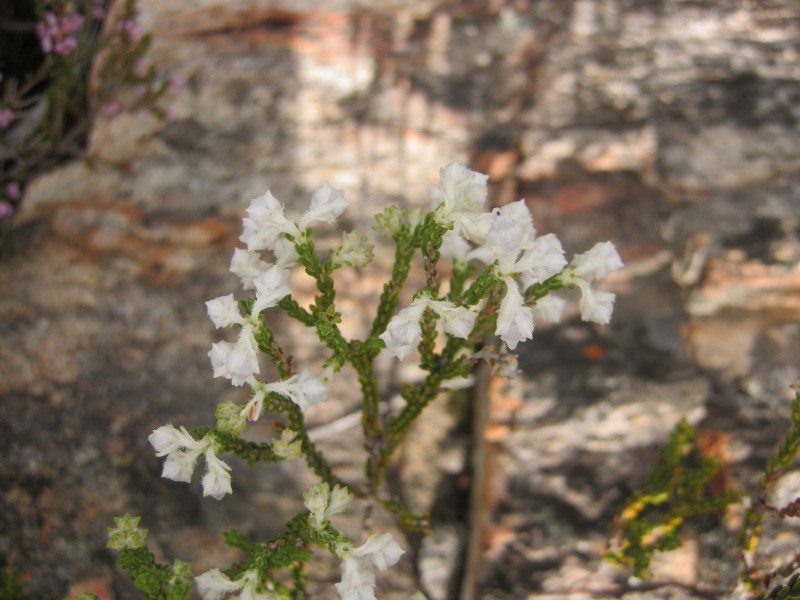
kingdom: Plantae
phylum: Tracheophyta
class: Magnoliopsida
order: Ericales
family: Ericaceae
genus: Erica
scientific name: Erica fimbriata
